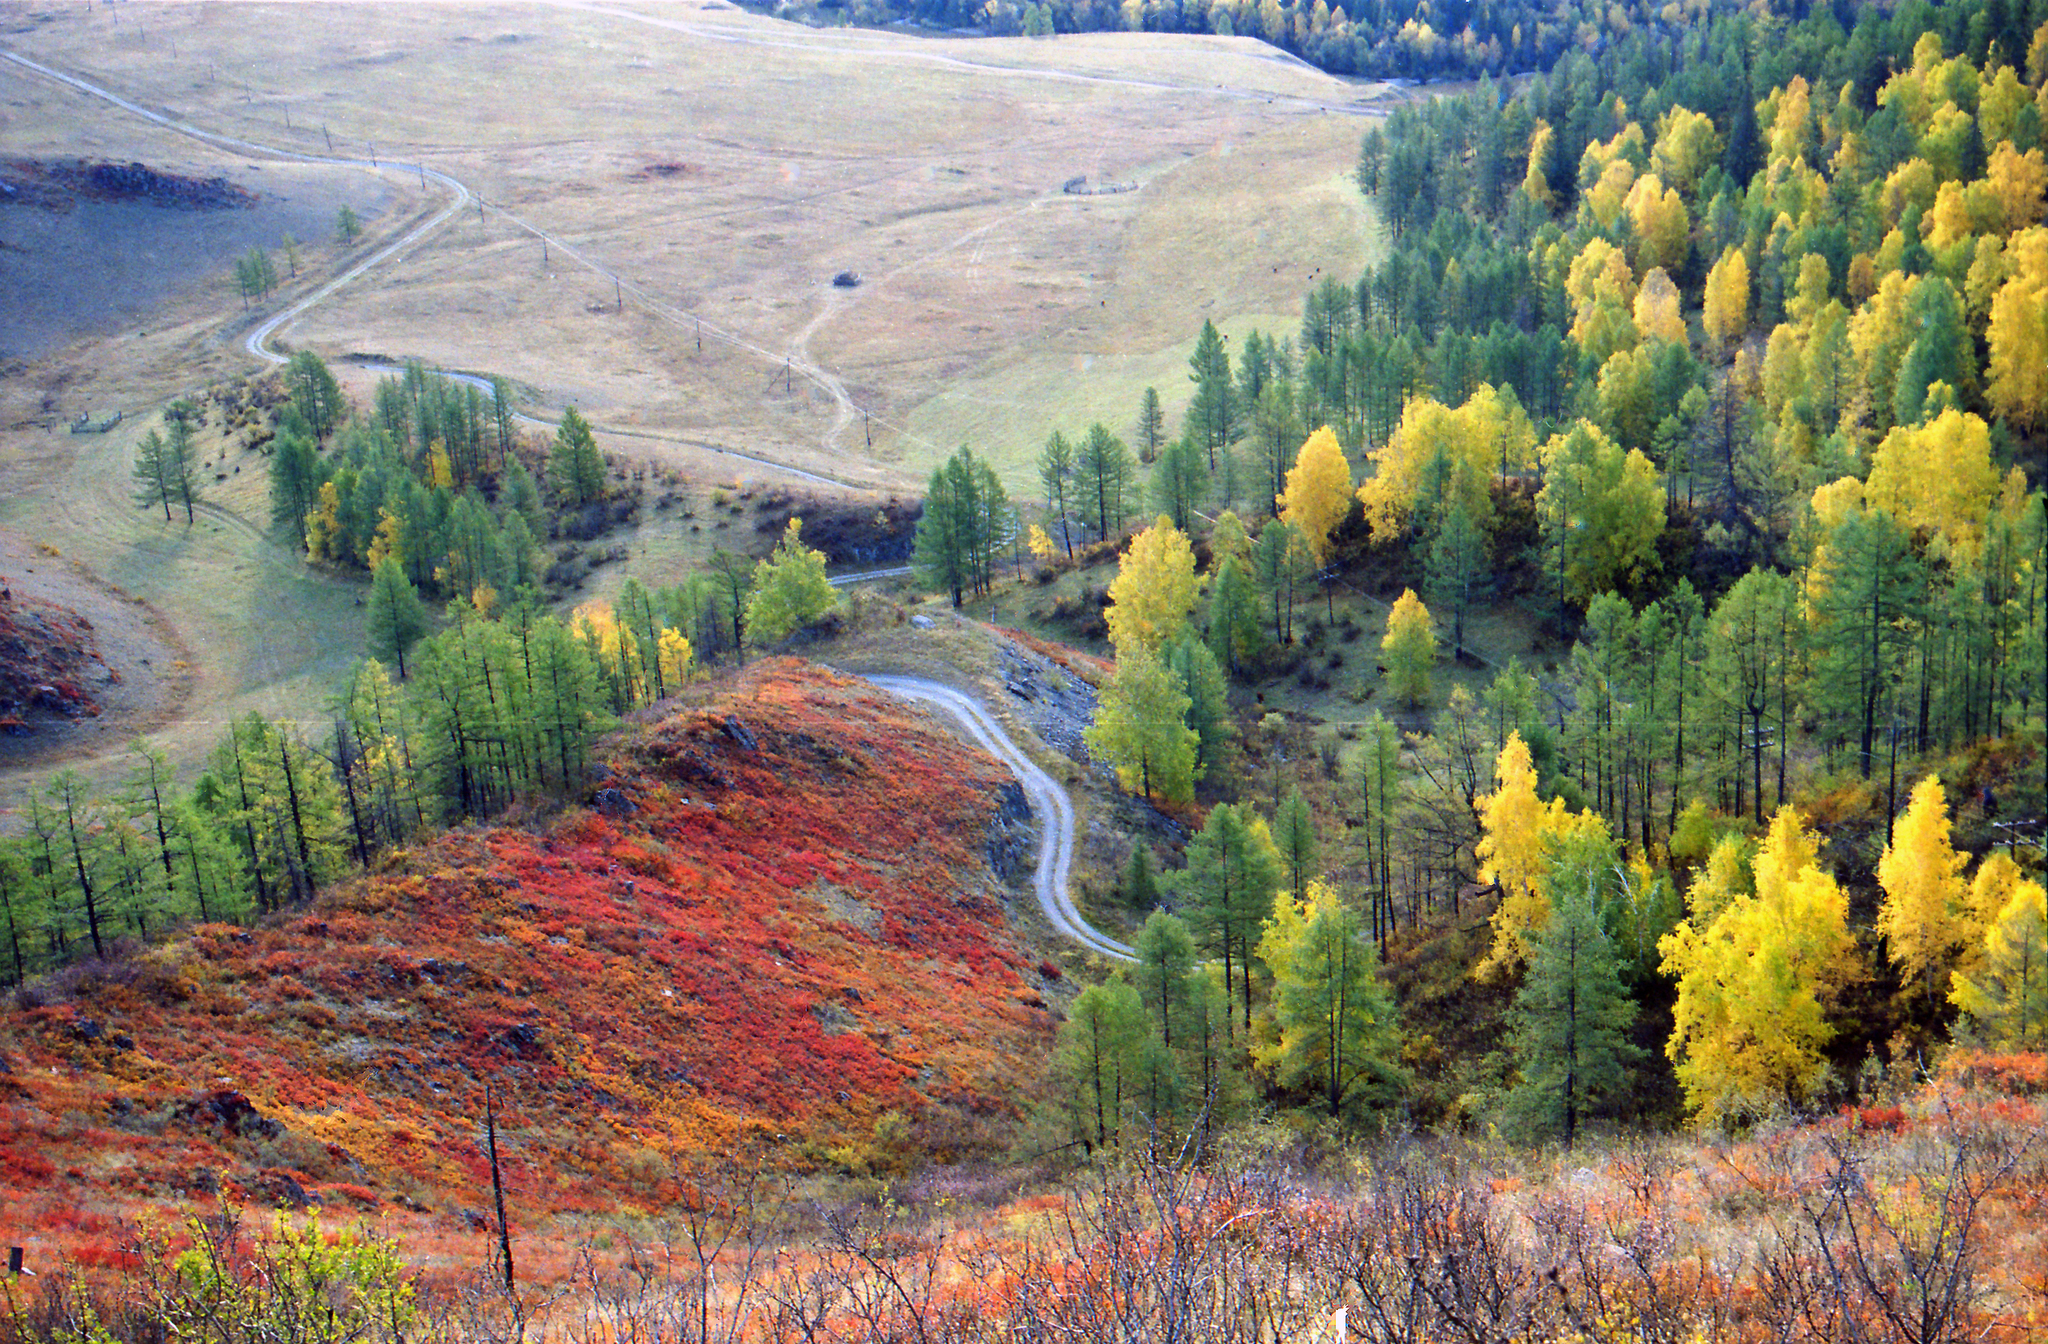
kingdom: Plantae
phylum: Tracheophyta
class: Magnoliopsida
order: Fagales
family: Betulaceae
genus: Betula
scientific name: Betula pendula
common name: Silver birch
